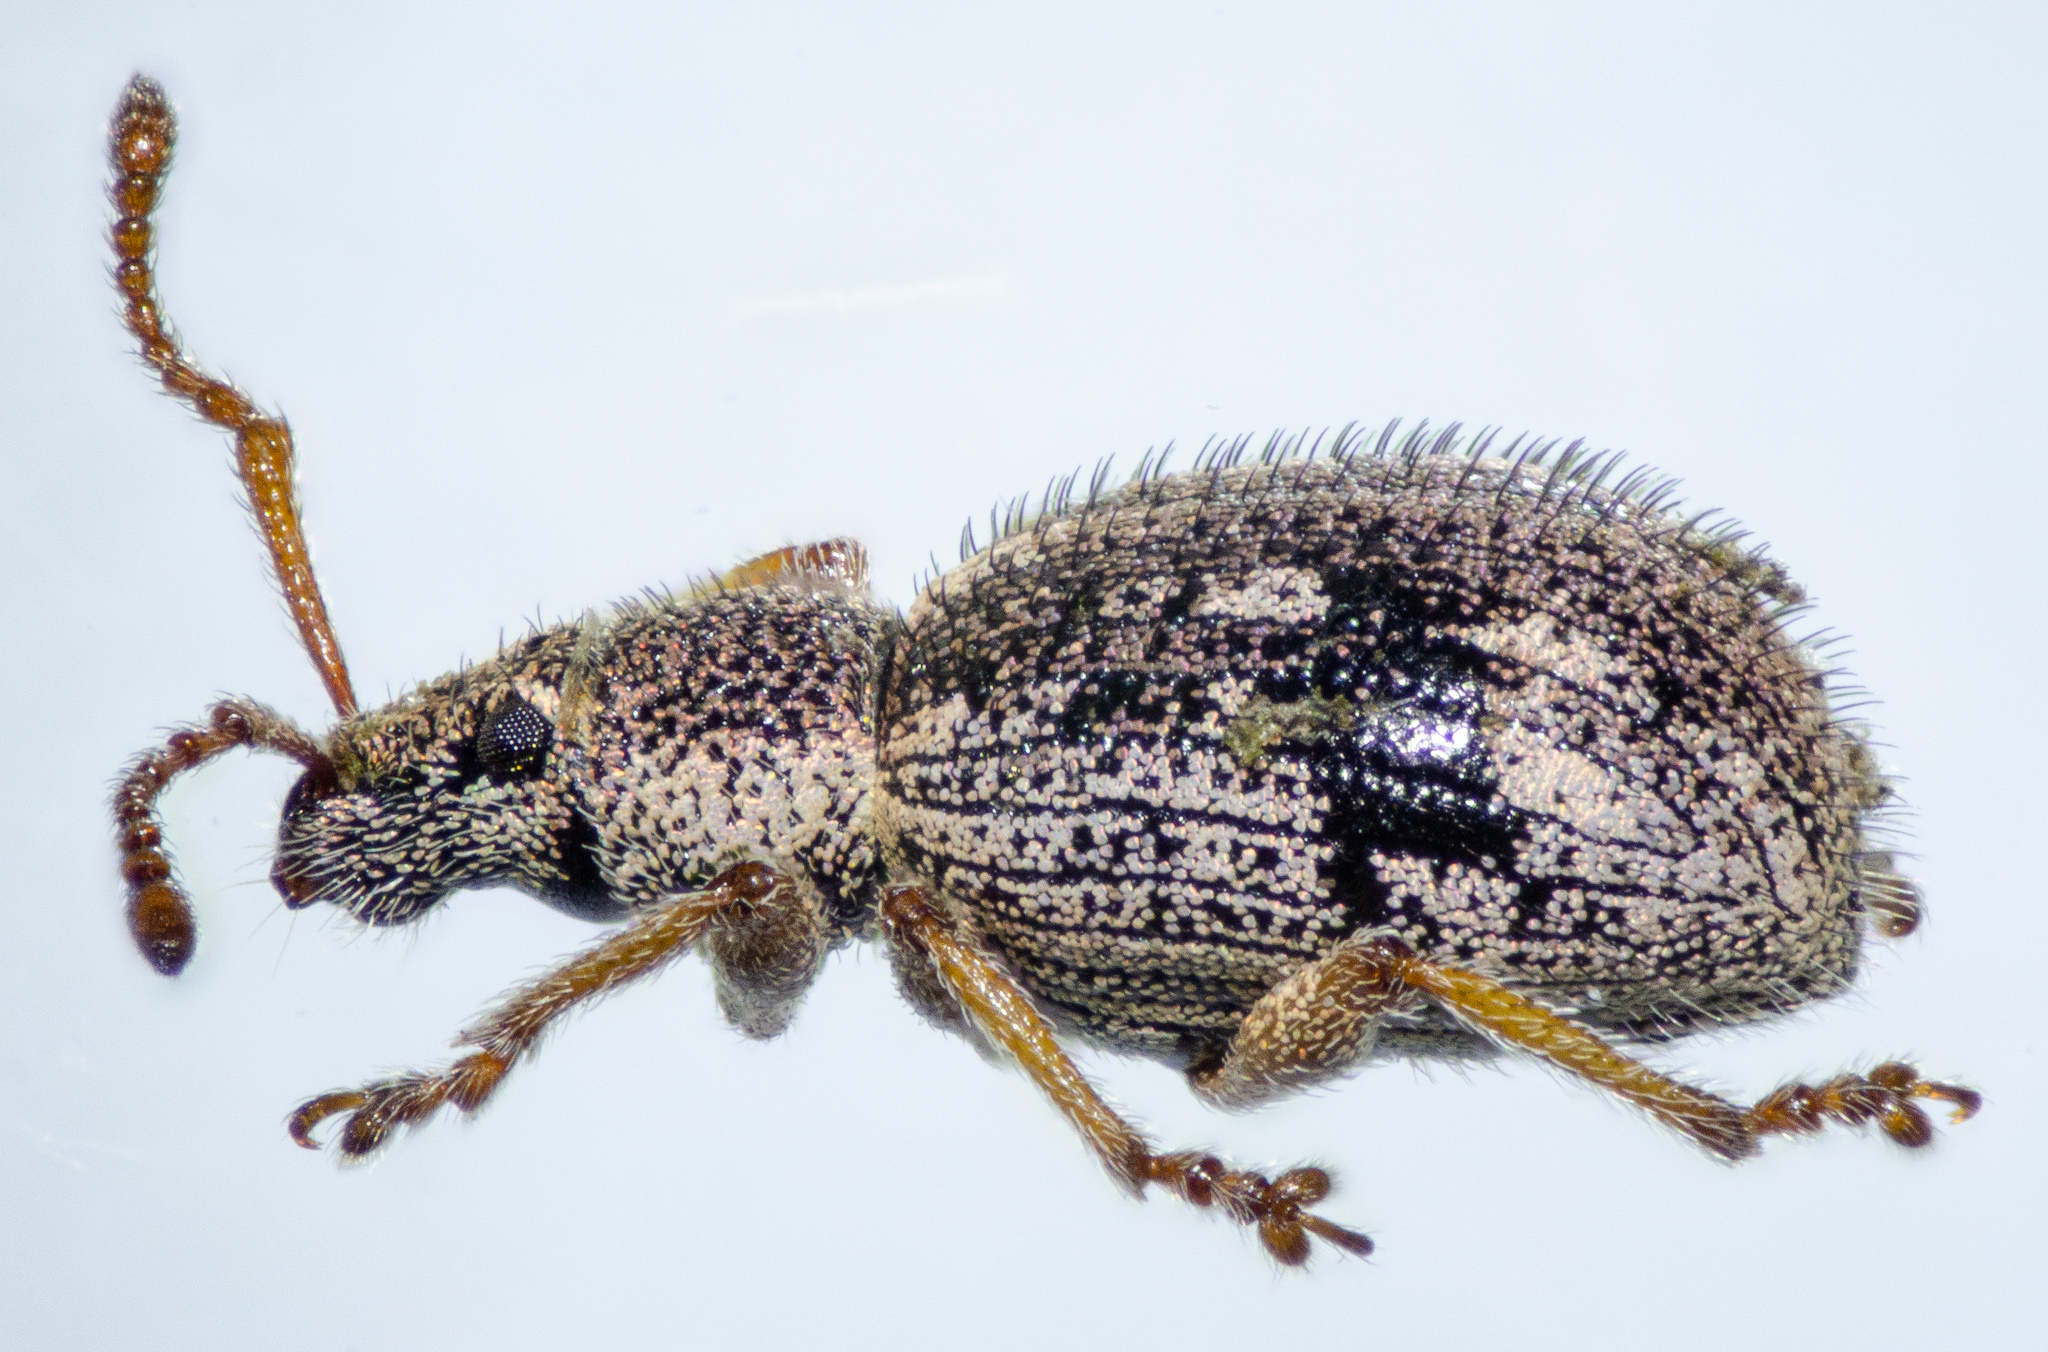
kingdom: Animalia
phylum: Arthropoda
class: Insecta
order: Coleoptera
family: Curculionidae
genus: Thricolepis
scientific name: Thricolepis inornata
